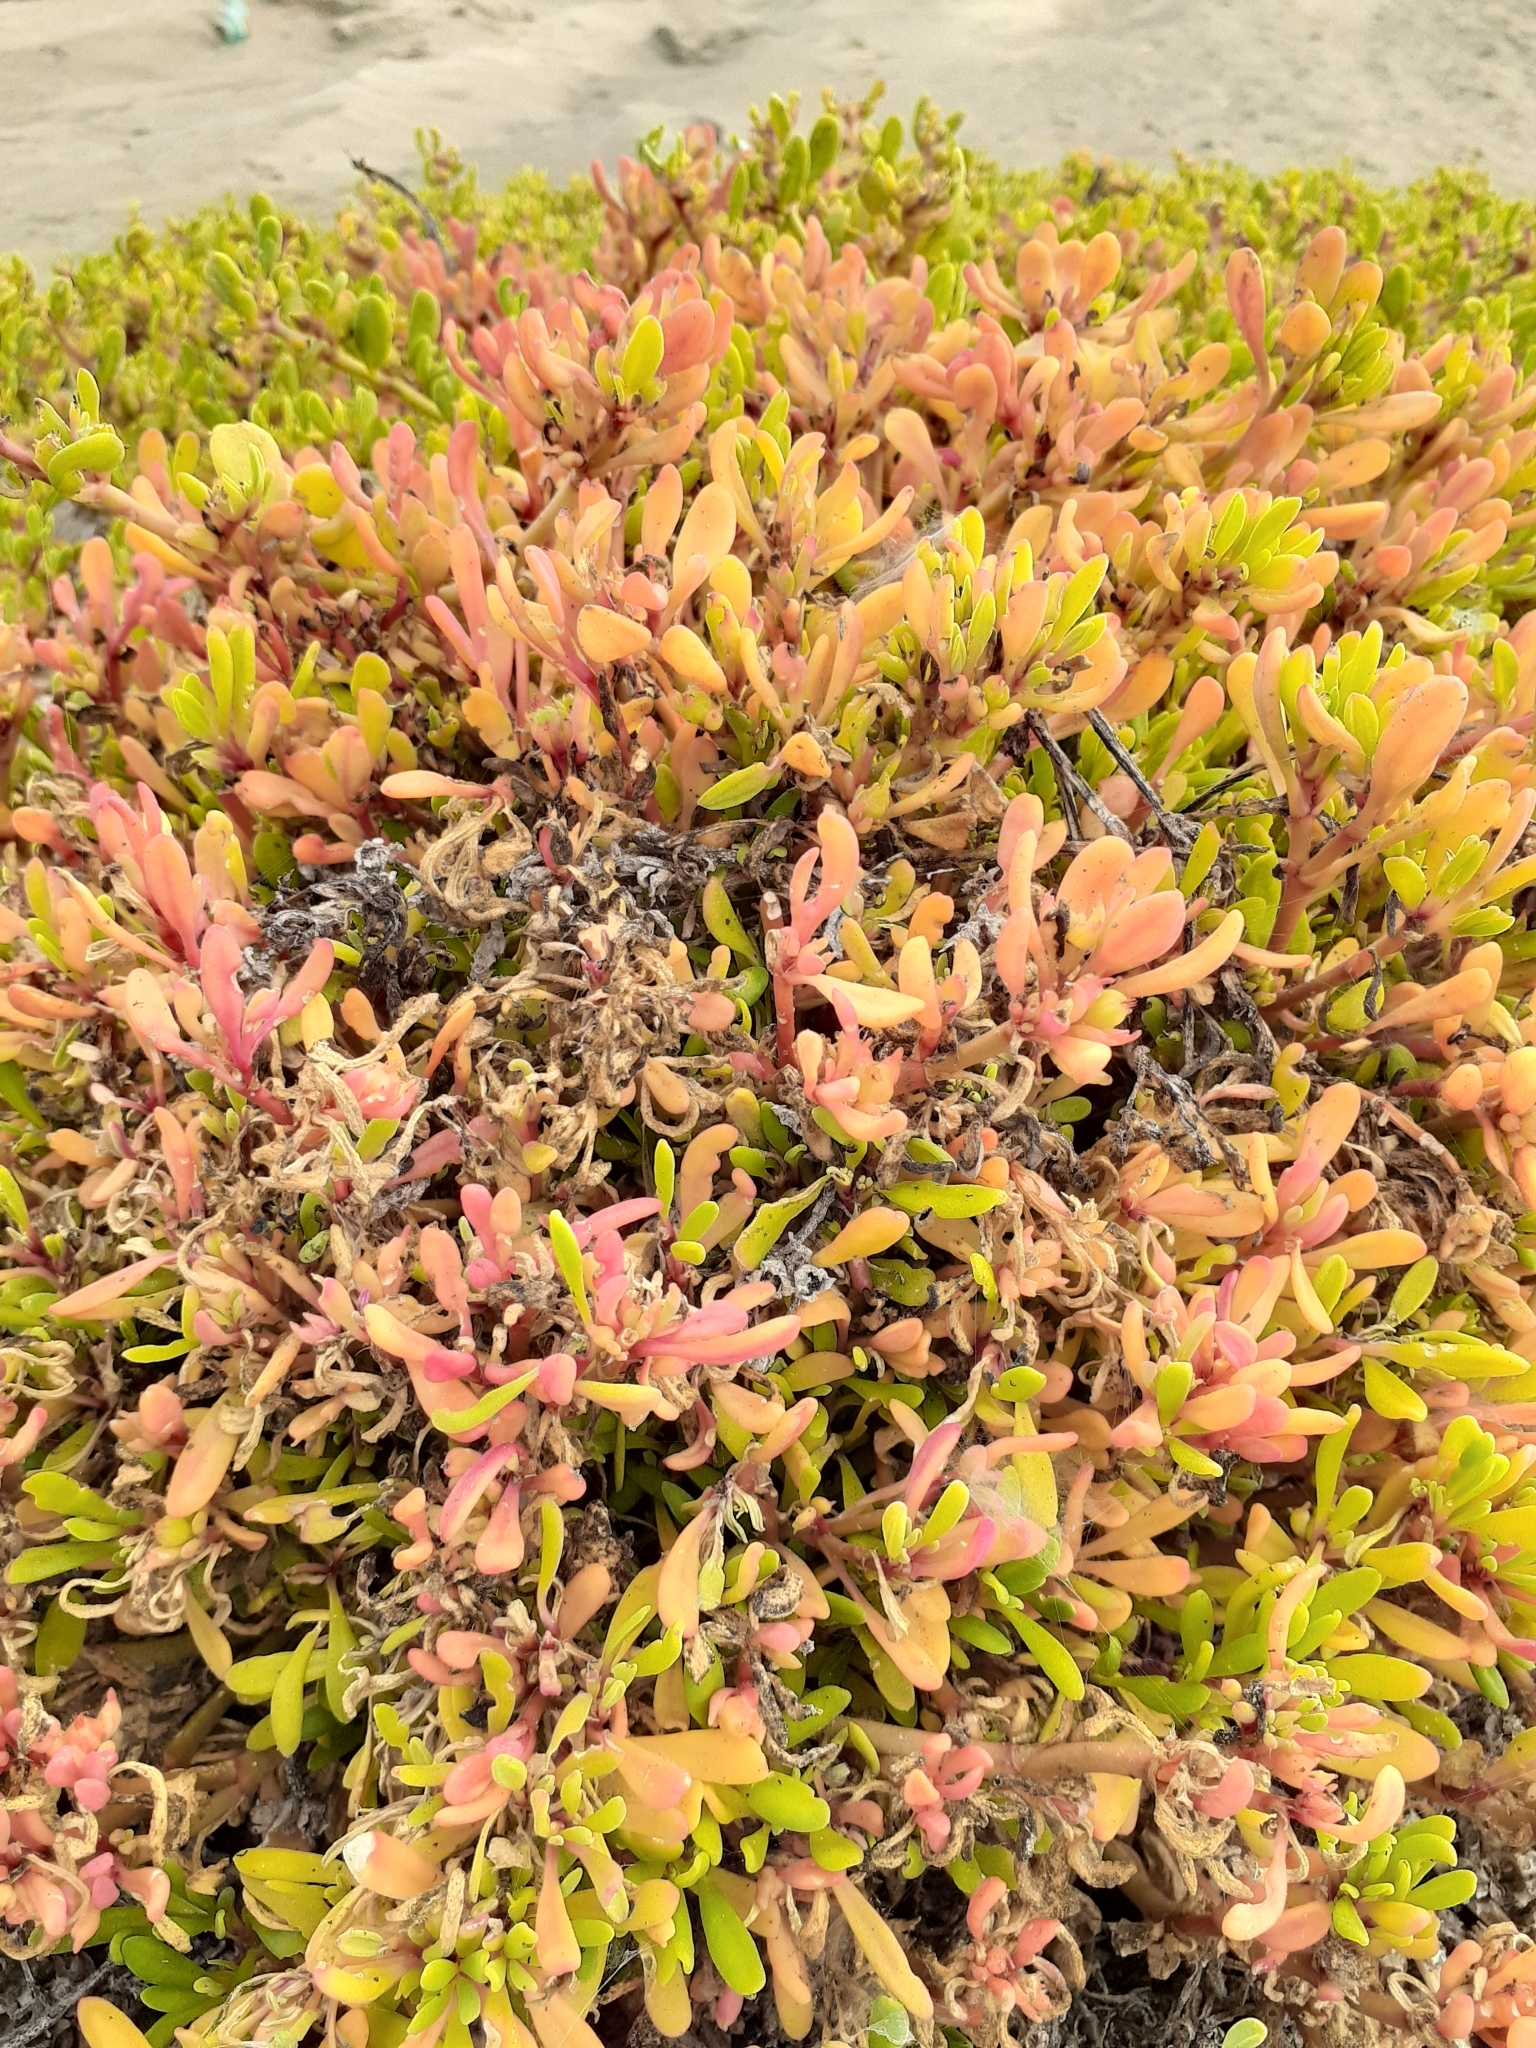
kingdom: Plantae
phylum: Tracheophyta
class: Magnoliopsida
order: Caryophyllales
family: Aizoaceae
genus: Sesuvium
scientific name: Sesuvium portulacastrum
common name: Sea-purslane
